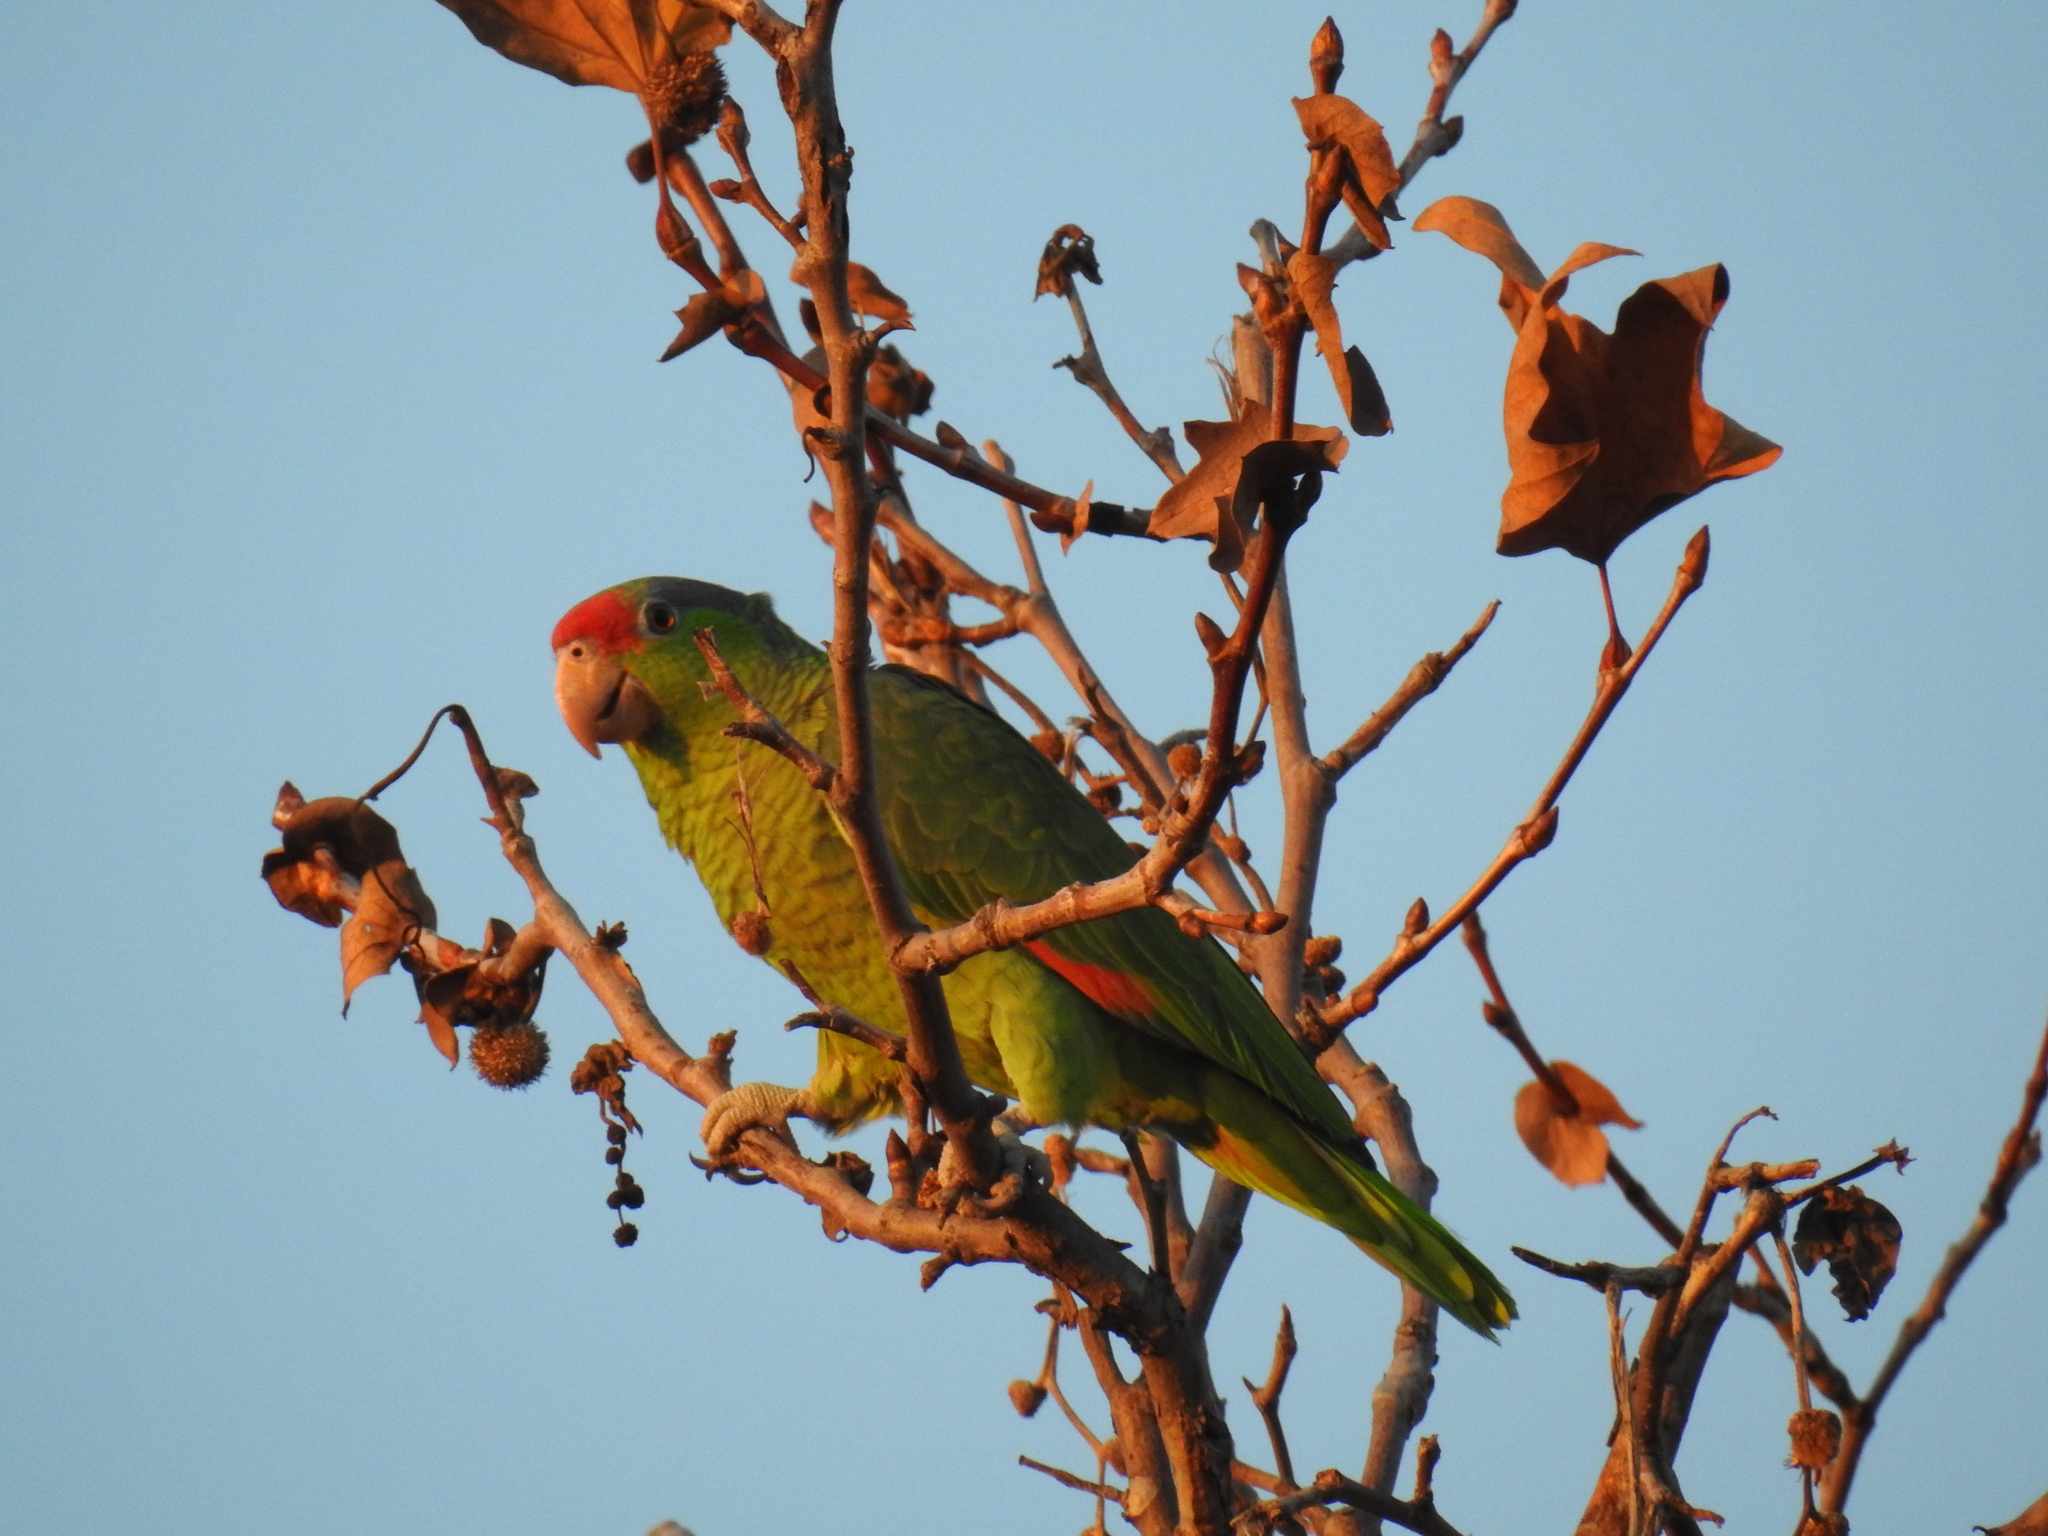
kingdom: Animalia
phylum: Chordata
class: Aves
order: Psittaciformes
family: Psittacidae
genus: Amazona
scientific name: Amazona viridigenalis
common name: Red-crowned amazon
